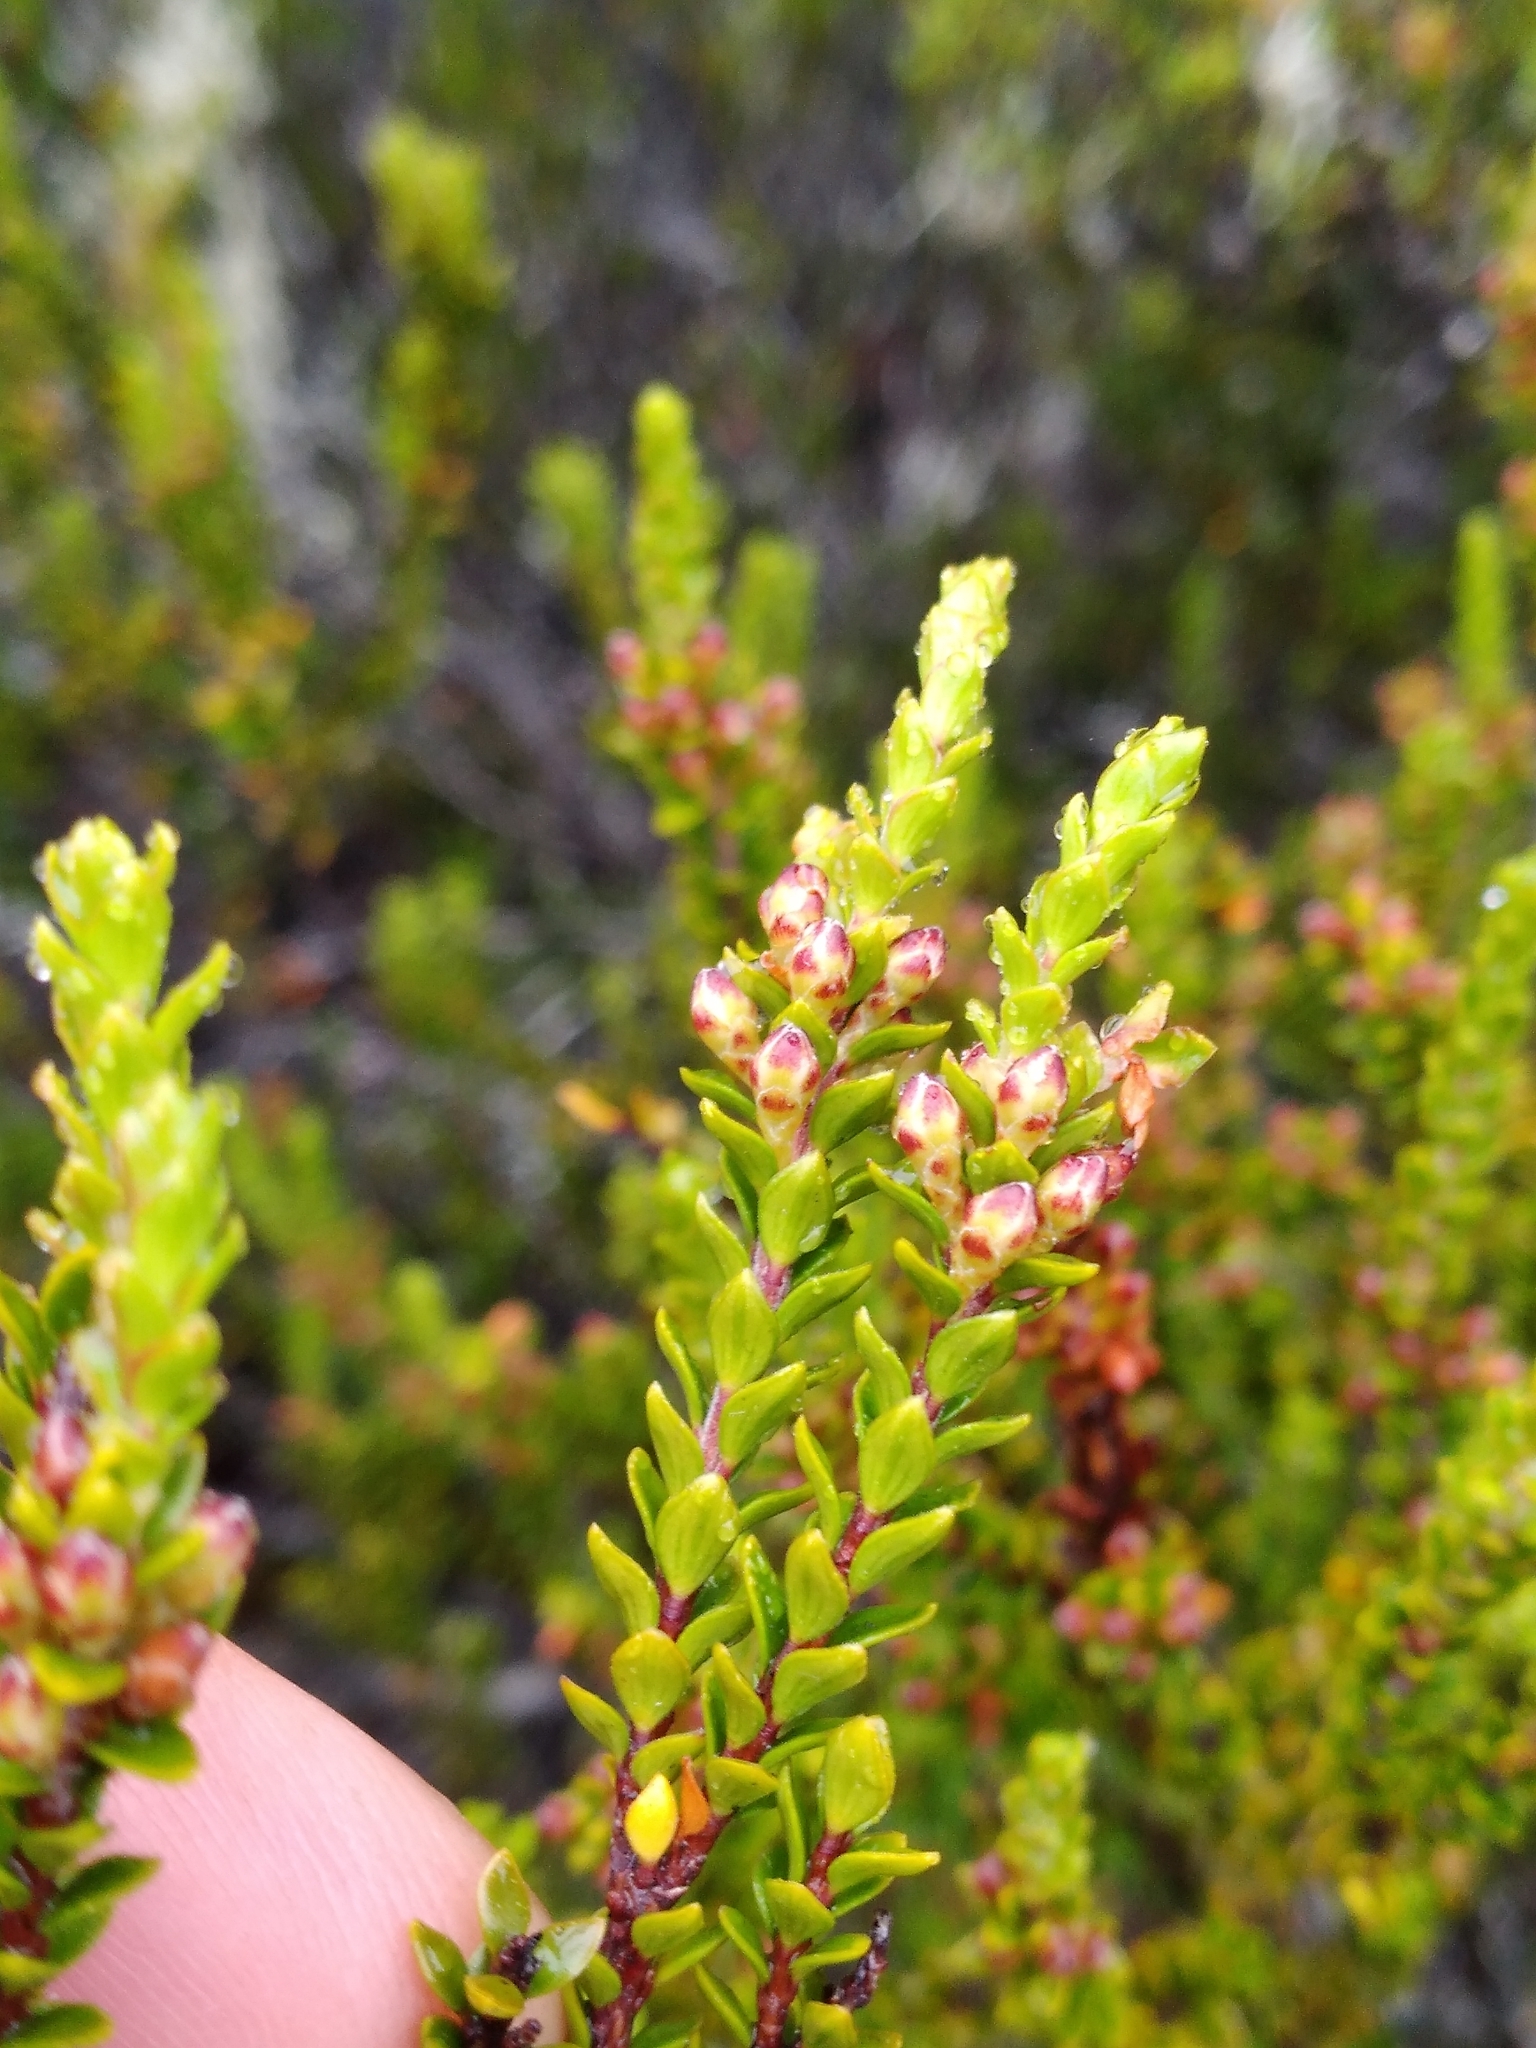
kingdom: Plantae
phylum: Tracheophyta
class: Magnoliopsida
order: Ericales
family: Ericaceae
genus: Epacris
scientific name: Epacris alpina
